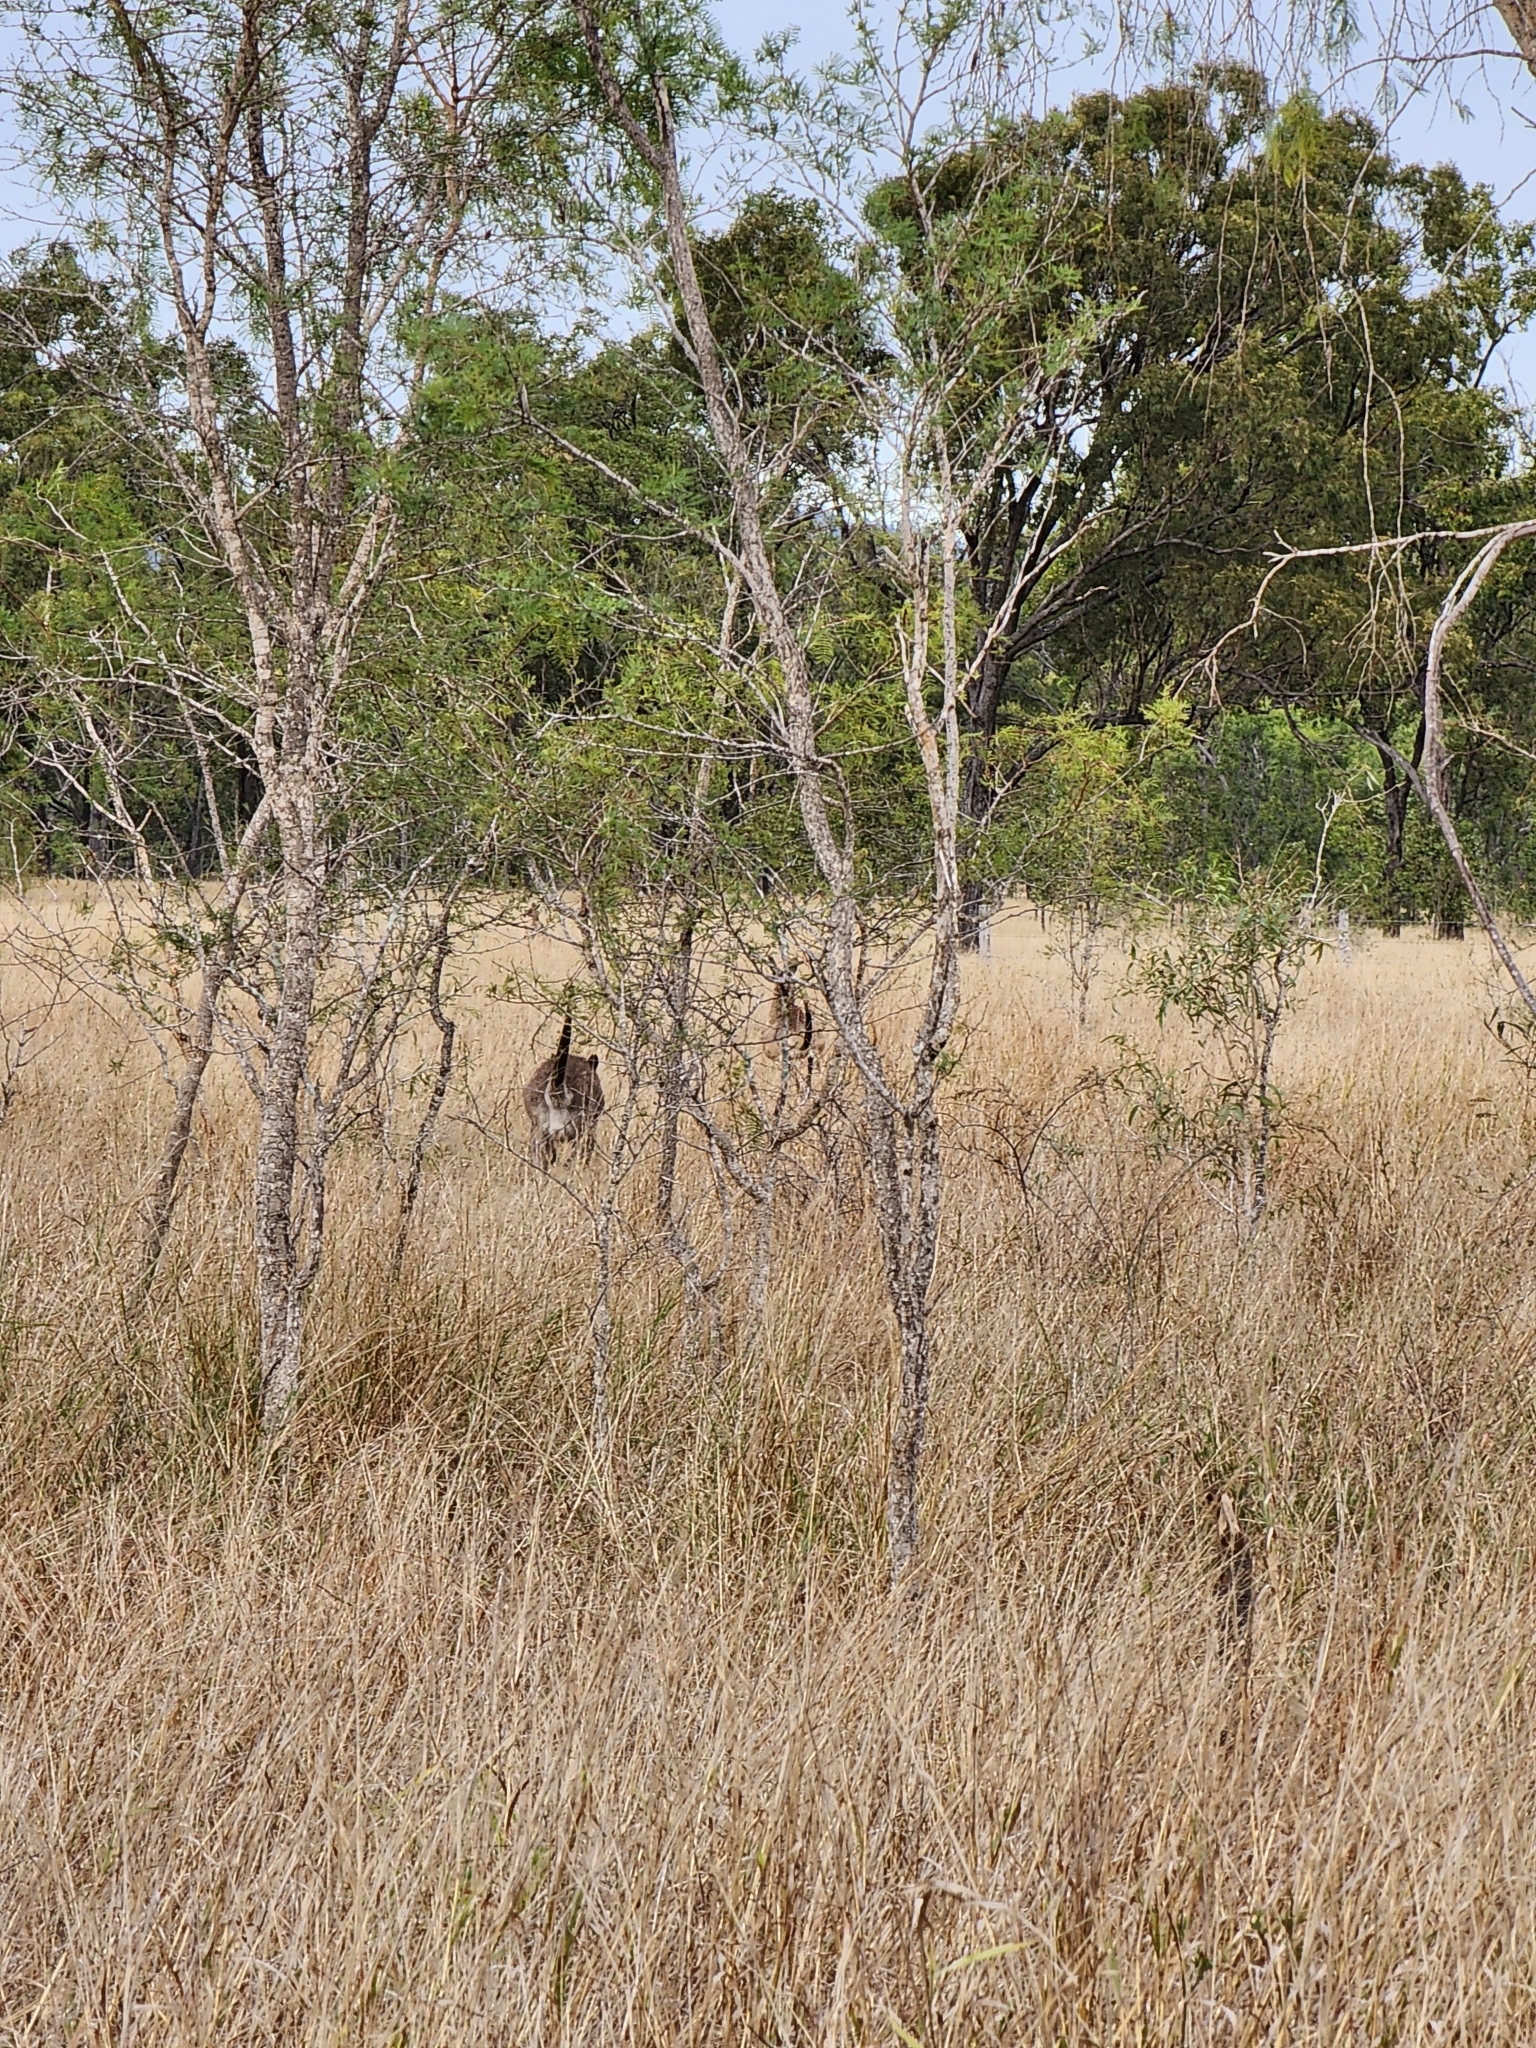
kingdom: Animalia
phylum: Chordata
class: Mammalia
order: Diprotodontia
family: Macropodidae
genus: Macropus
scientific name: Macropus giganteus
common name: Eastern grey kangaroo
